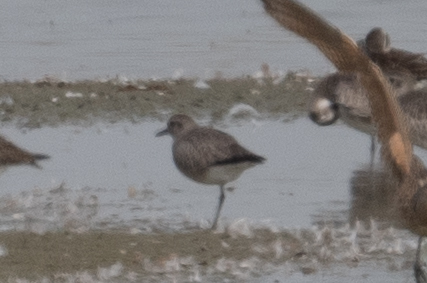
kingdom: Animalia
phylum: Chordata
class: Aves
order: Charadriiformes
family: Charadriidae
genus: Pluvialis
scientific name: Pluvialis squatarola
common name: Grey plover
